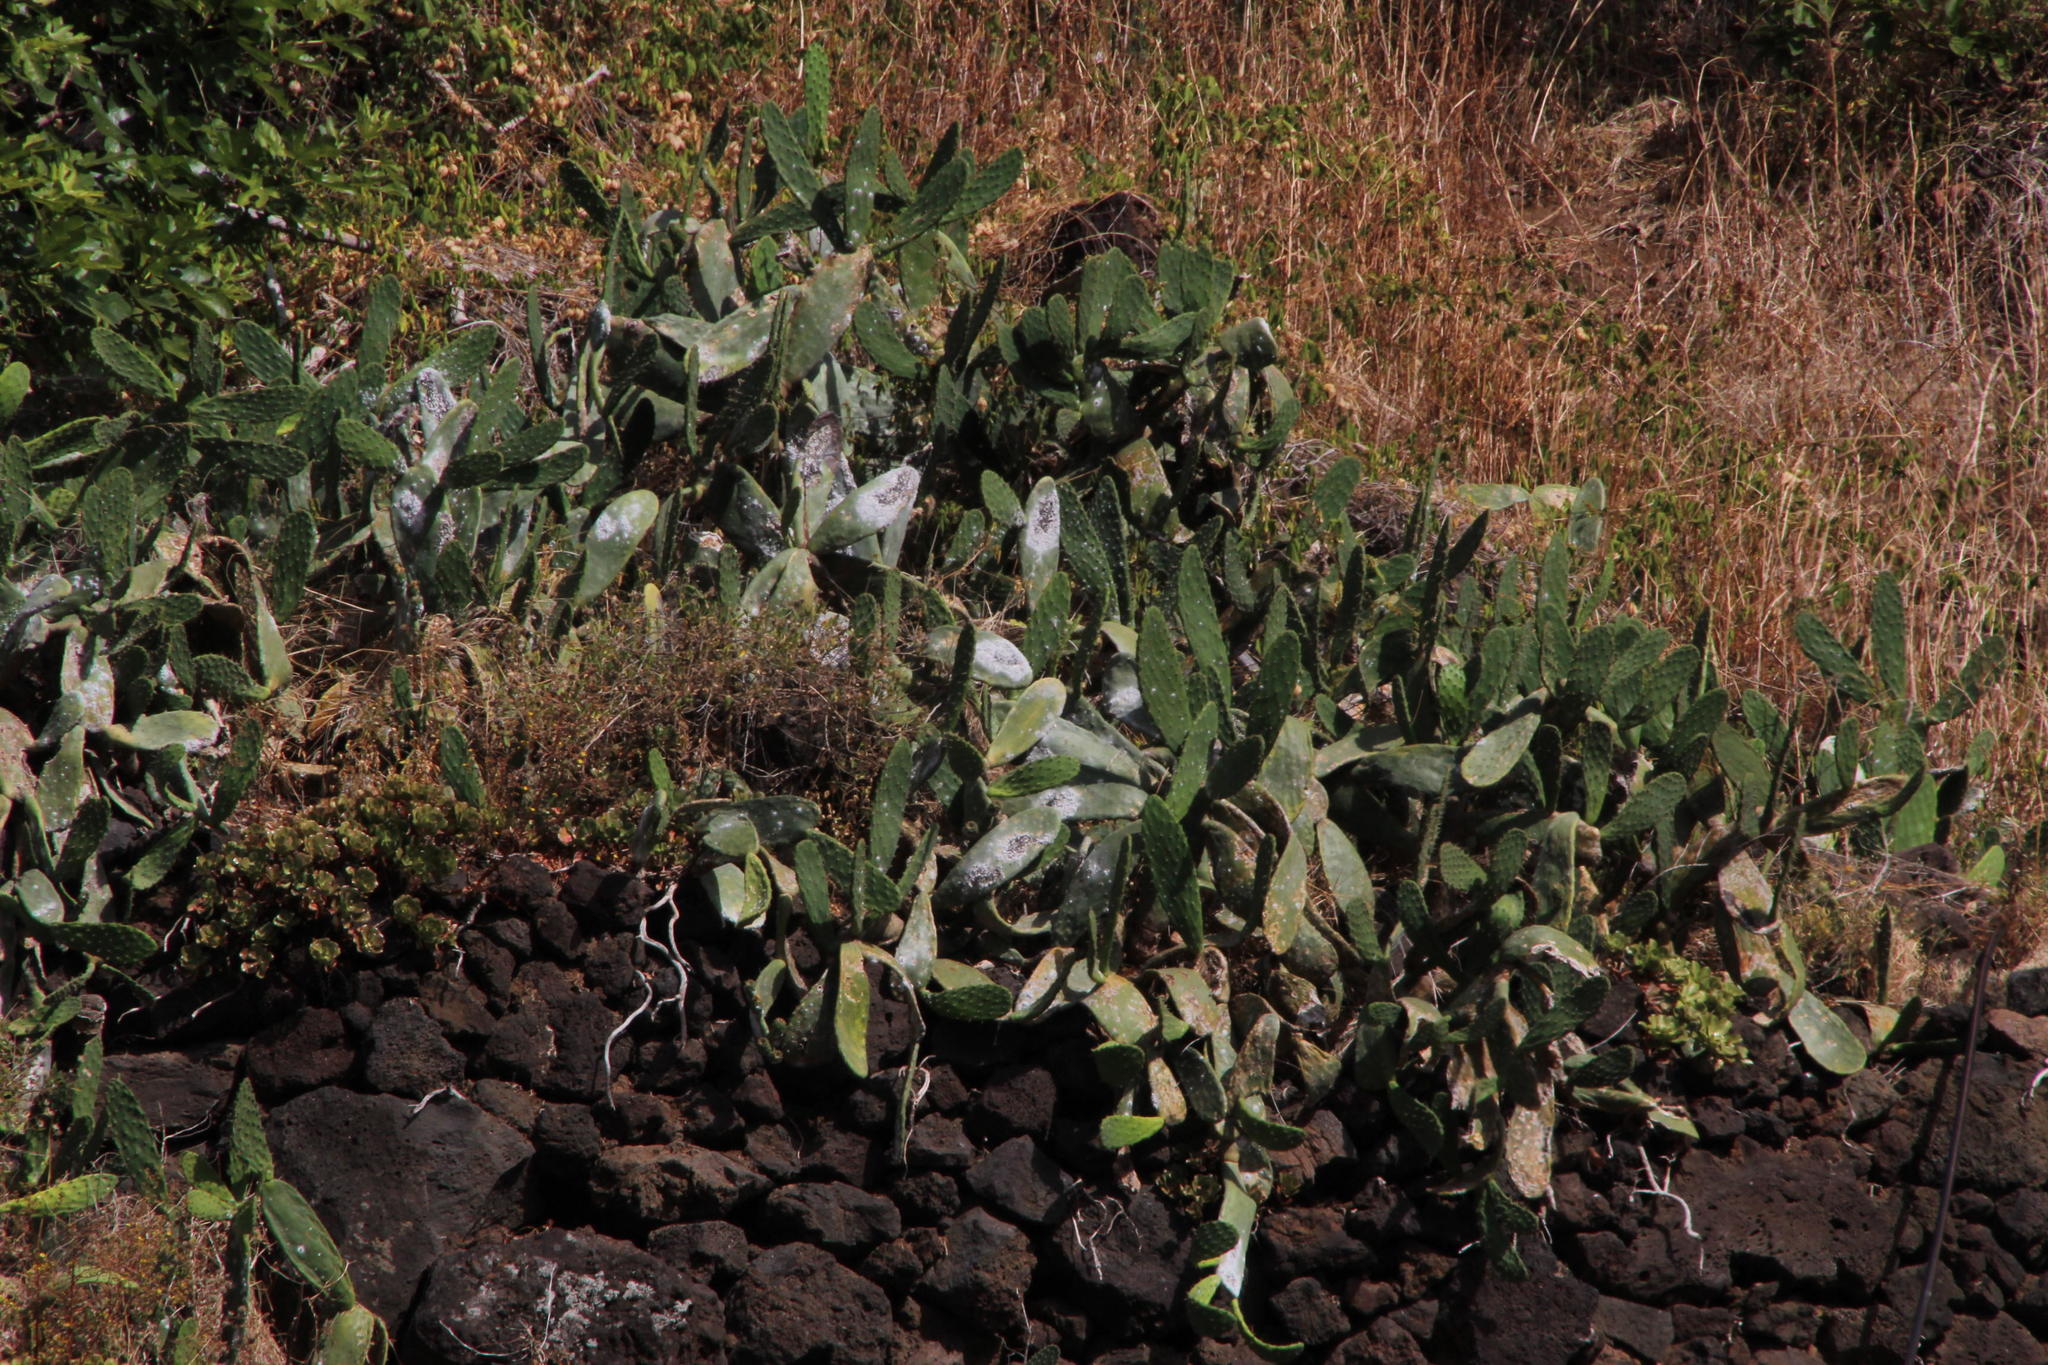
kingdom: Animalia
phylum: Arthropoda
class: Insecta
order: Hemiptera
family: Dactylopiidae
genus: Dactylopius
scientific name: Dactylopius coccus
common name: Cochineal
